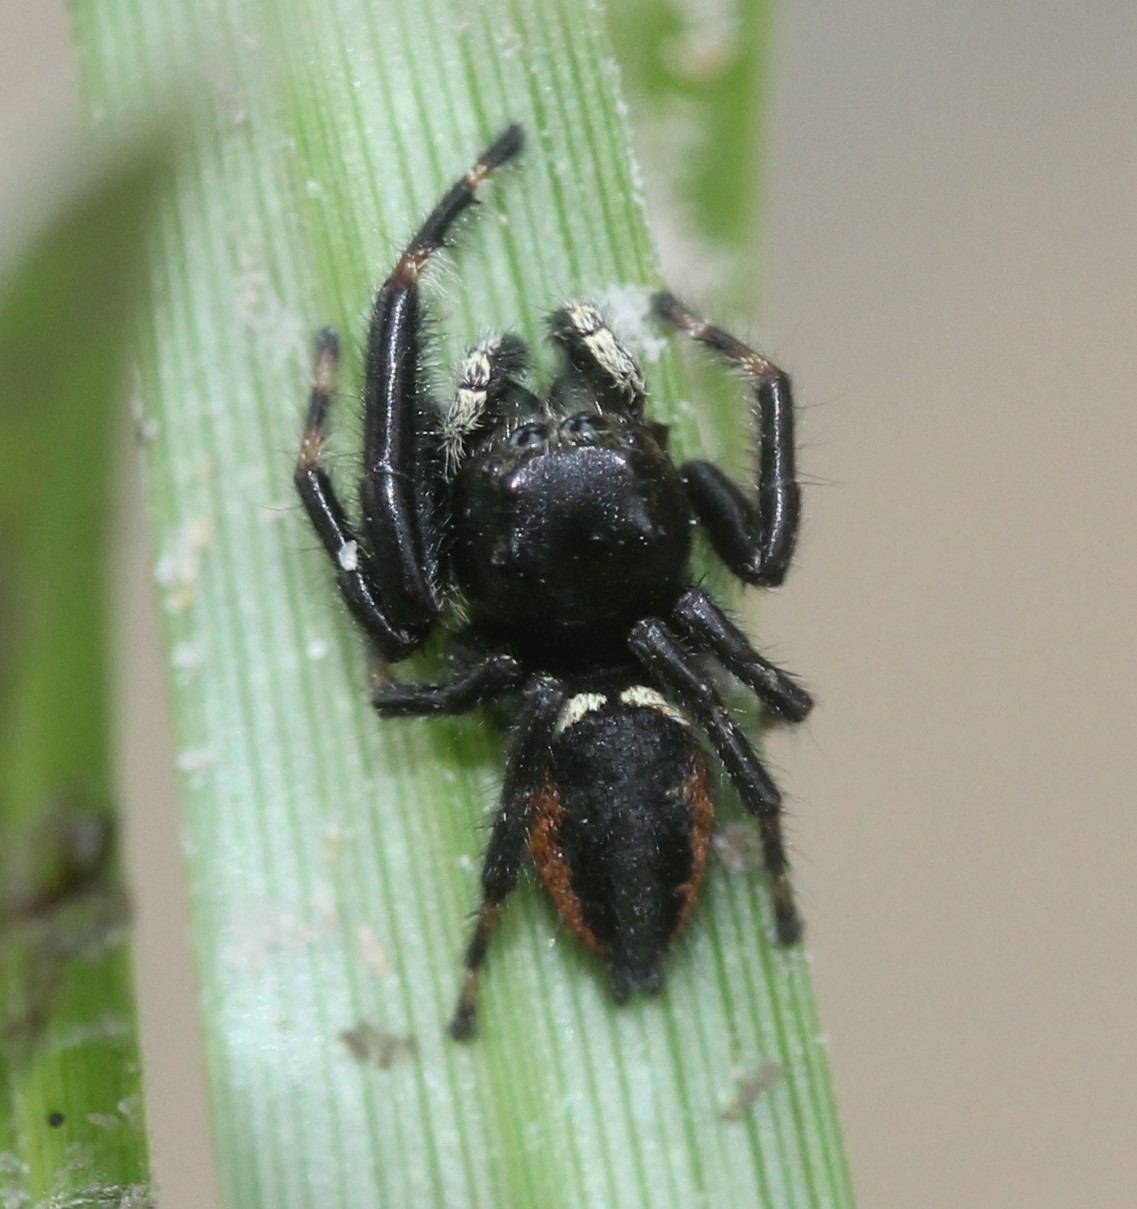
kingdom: Animalia
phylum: Arthropoda
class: Arachnida
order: Araneae
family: Salticidae
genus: Phidippus
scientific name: Phidippus clarus
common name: Brilliant jumping spider
